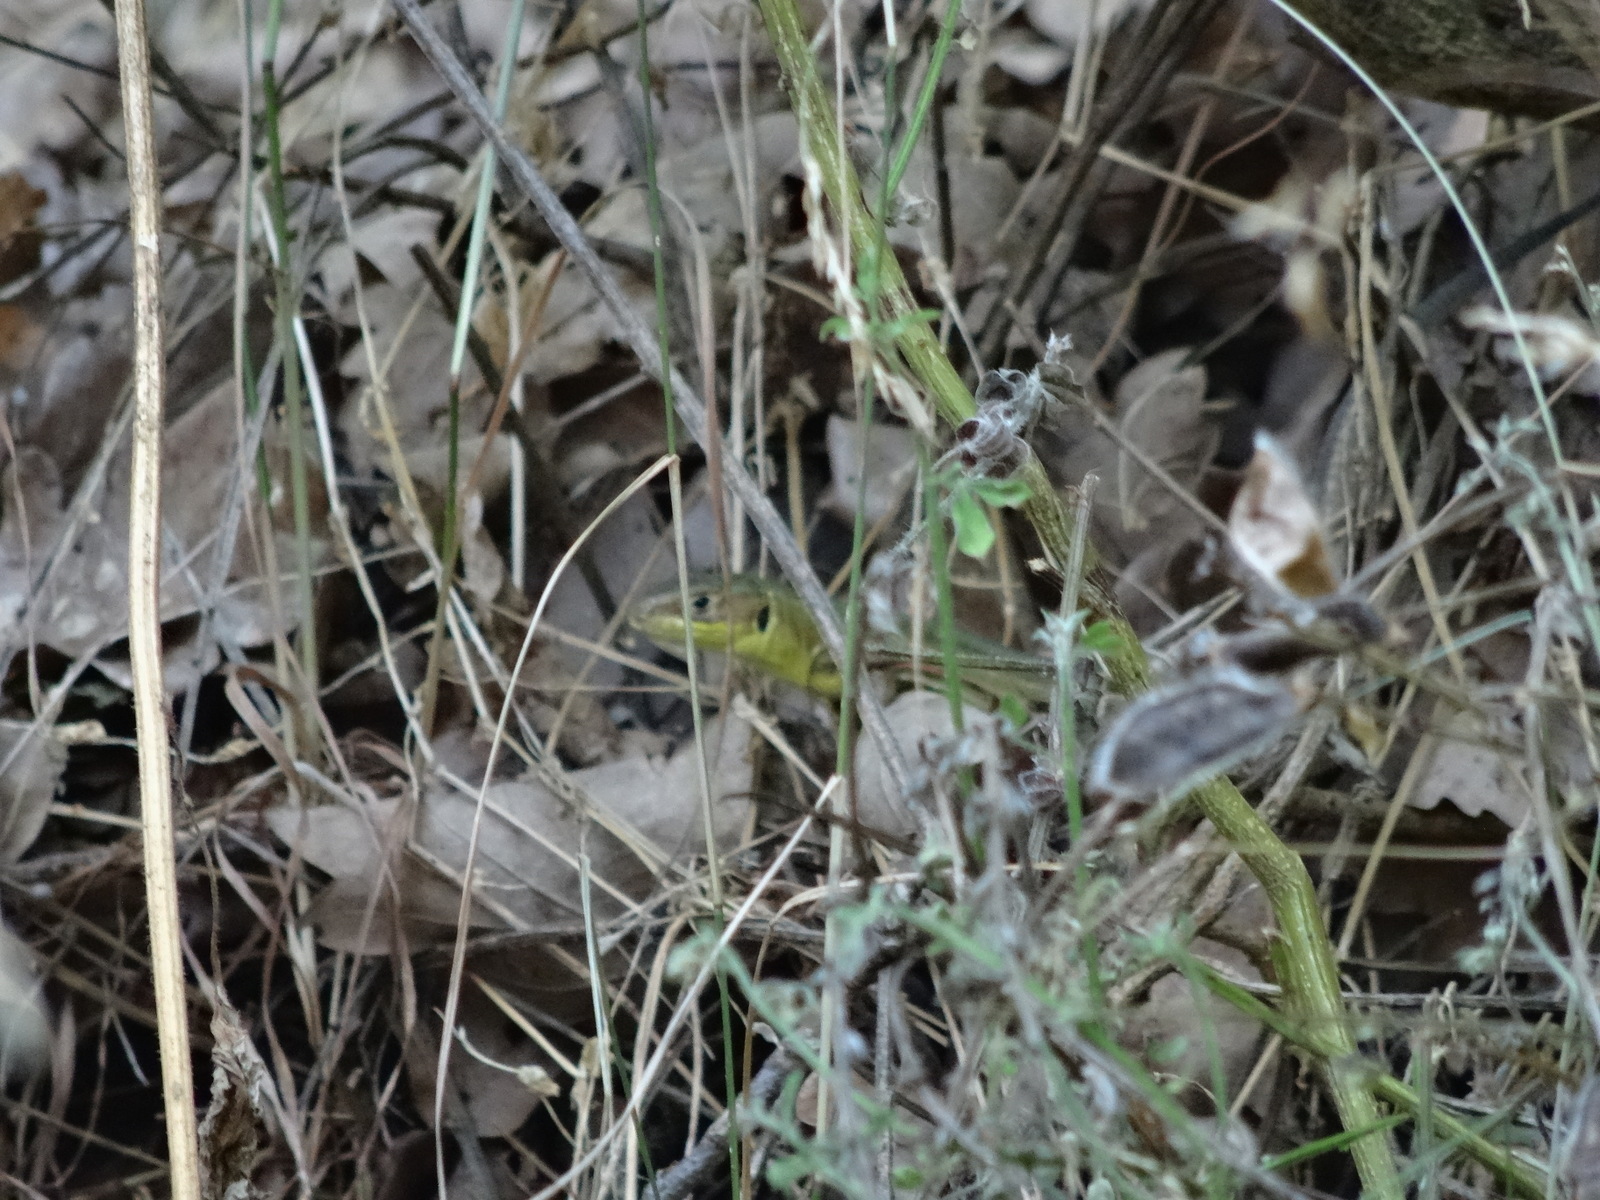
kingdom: Animalia
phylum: Chordata
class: Squamata
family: Lacertidae
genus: Lacerta
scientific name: Lacerta bilineata
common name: Western green lizard
